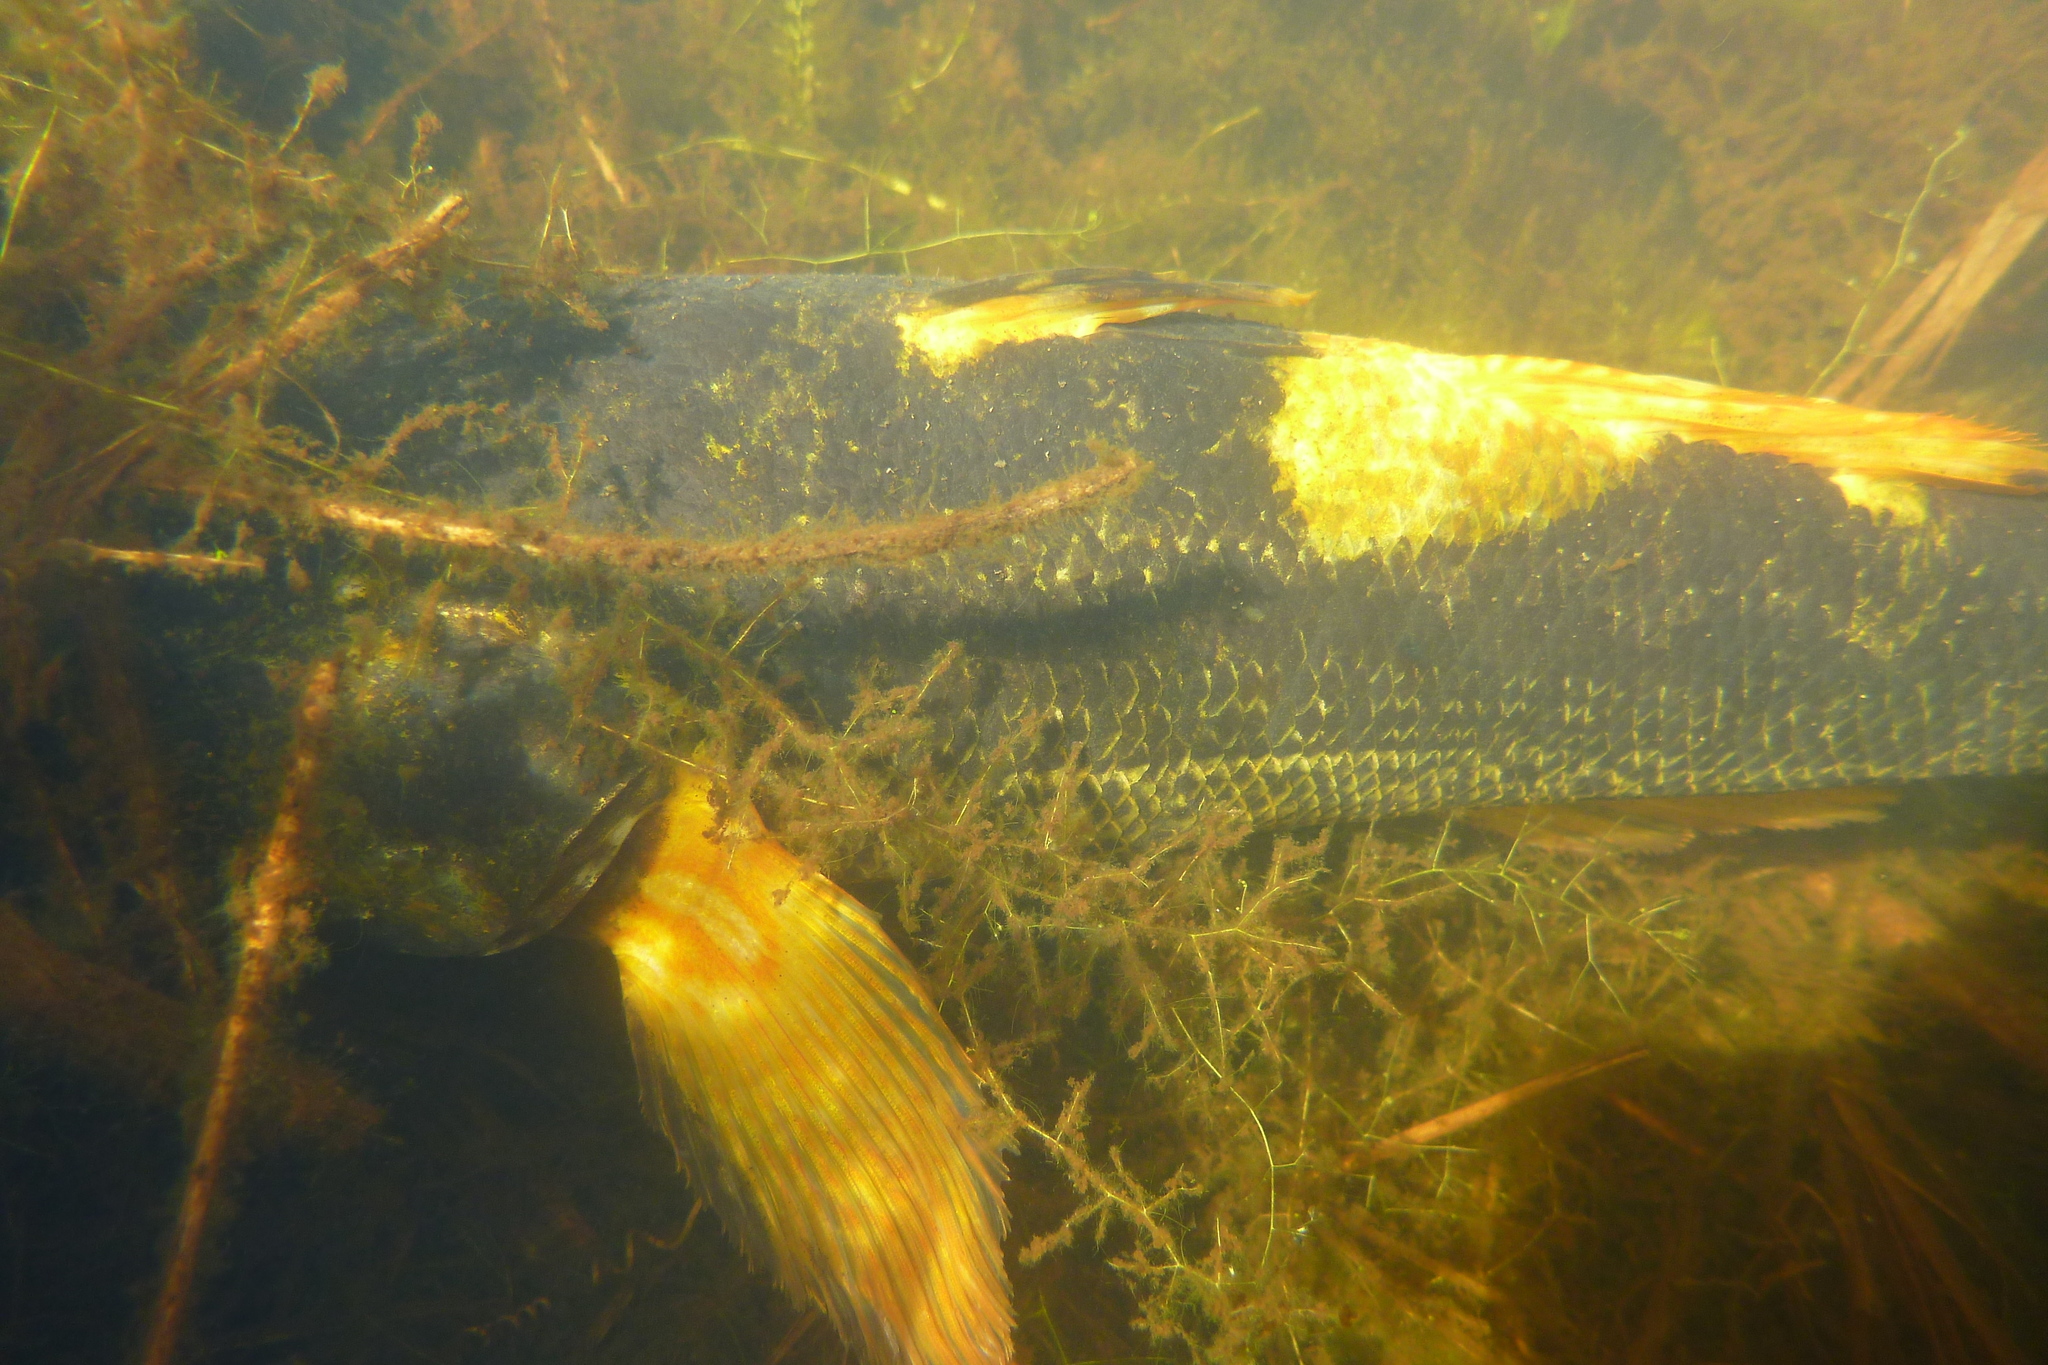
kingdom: Animalia
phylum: Chordata
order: Perciformes
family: Eleotridae
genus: Bunaka
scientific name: Bunaka gyrinoides
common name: Green backed guavina
